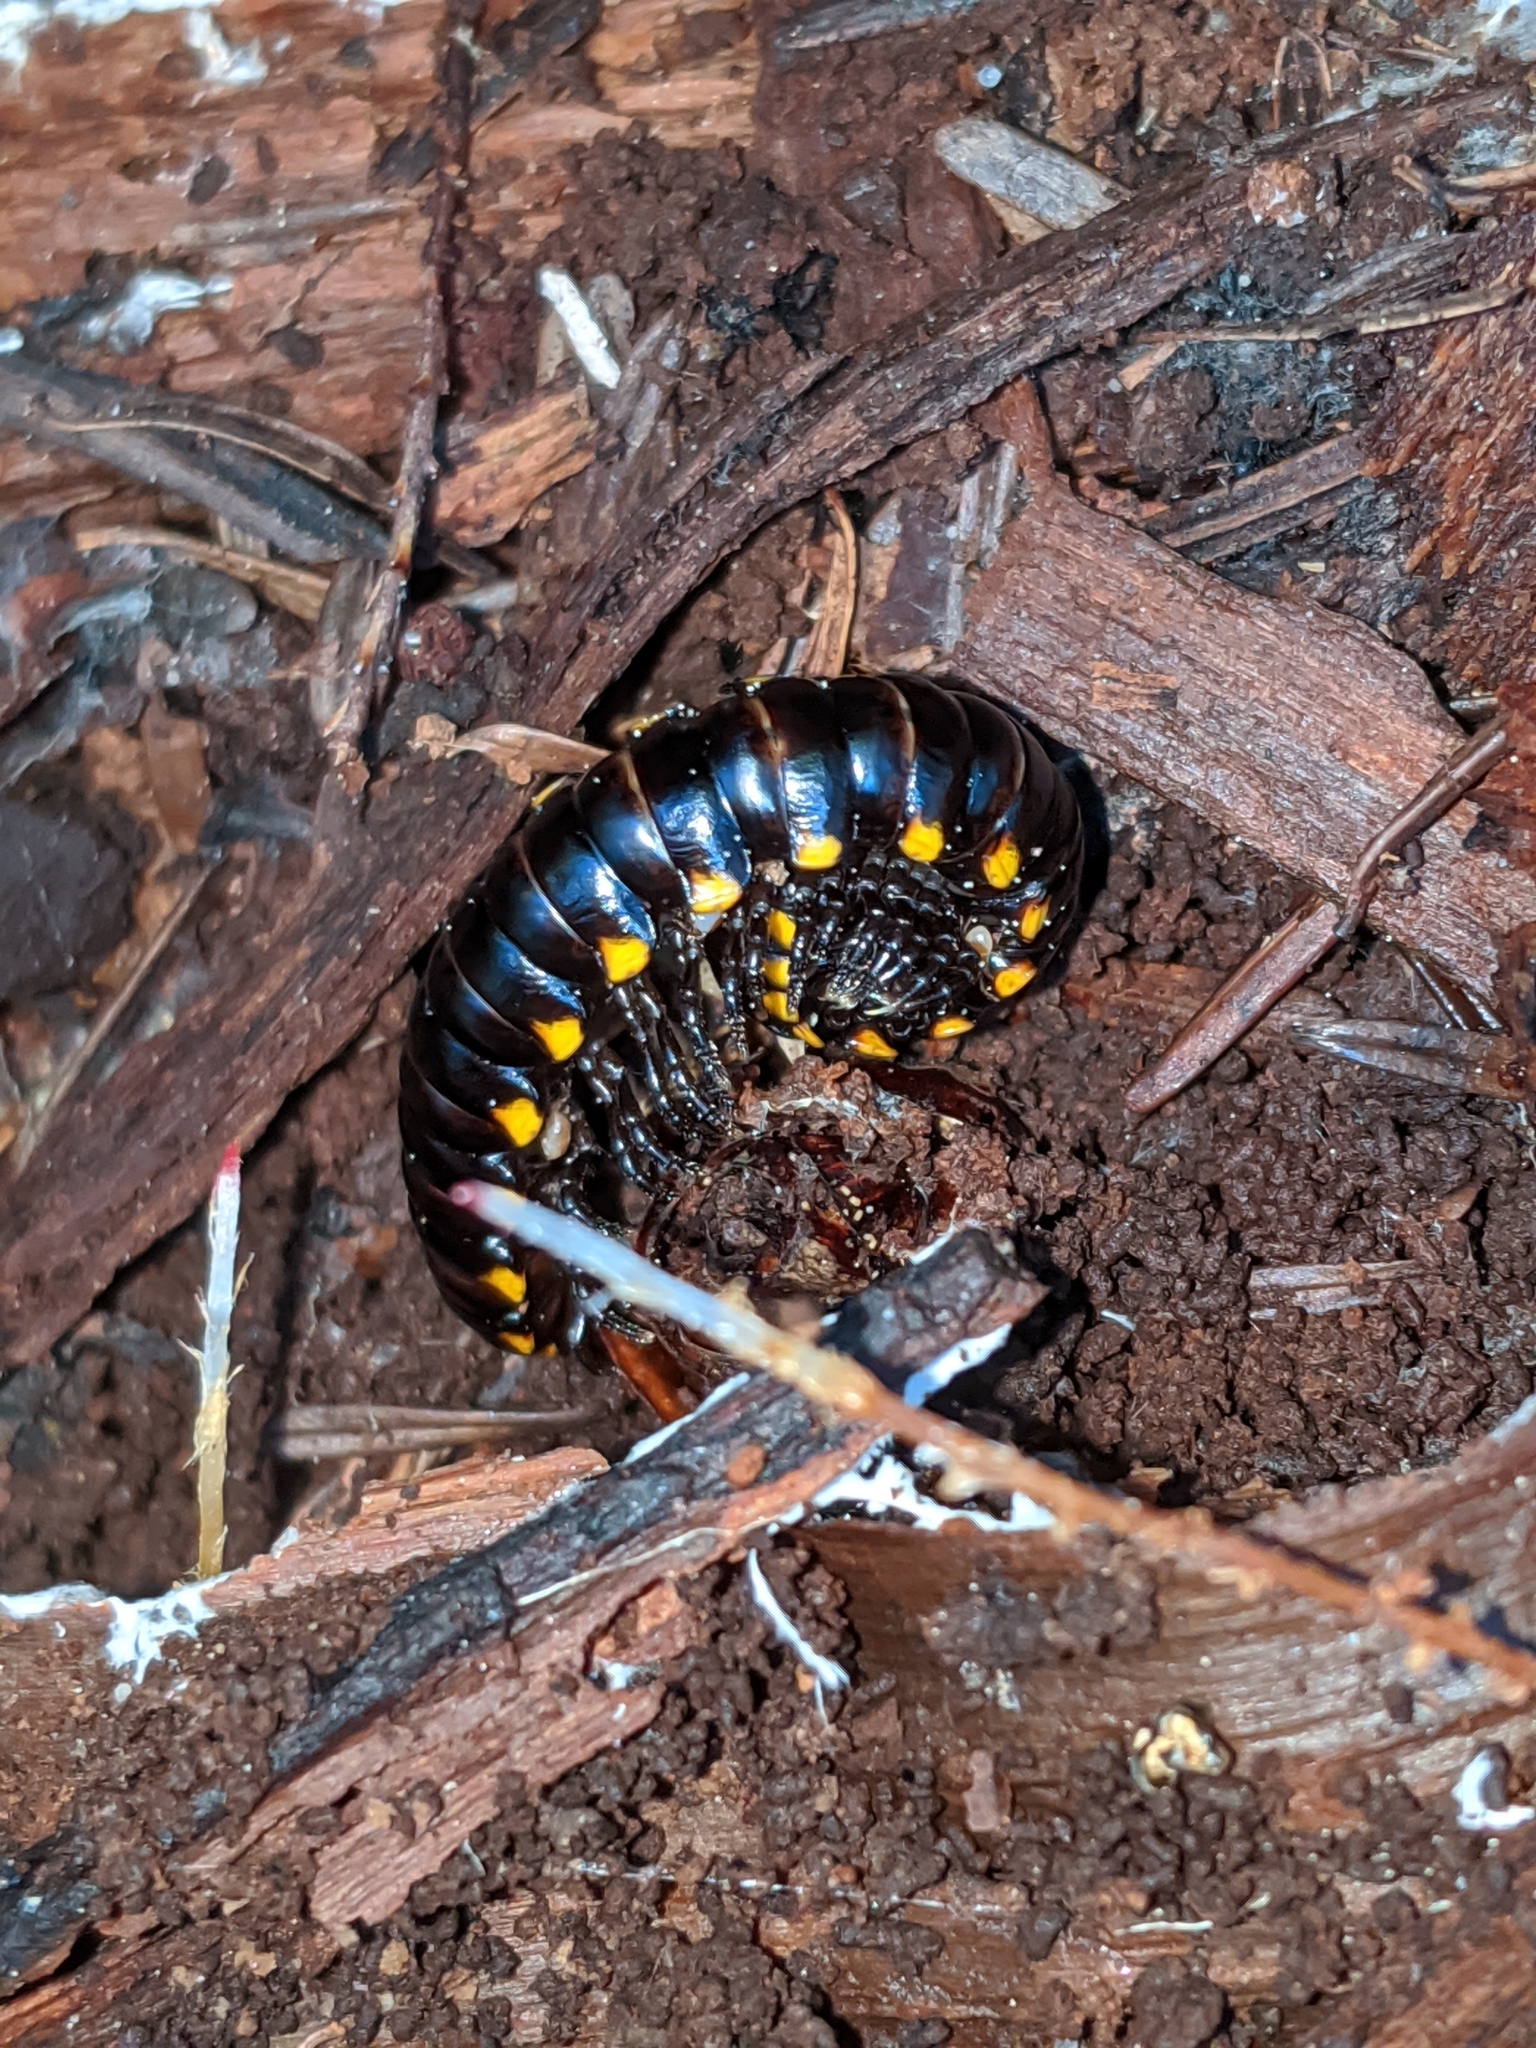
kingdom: Animalia
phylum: Arthropoda
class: Diplopoda
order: Polydesmida
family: Xystodesmidae
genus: Harpaphe
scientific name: Harpaphe haydeniana
